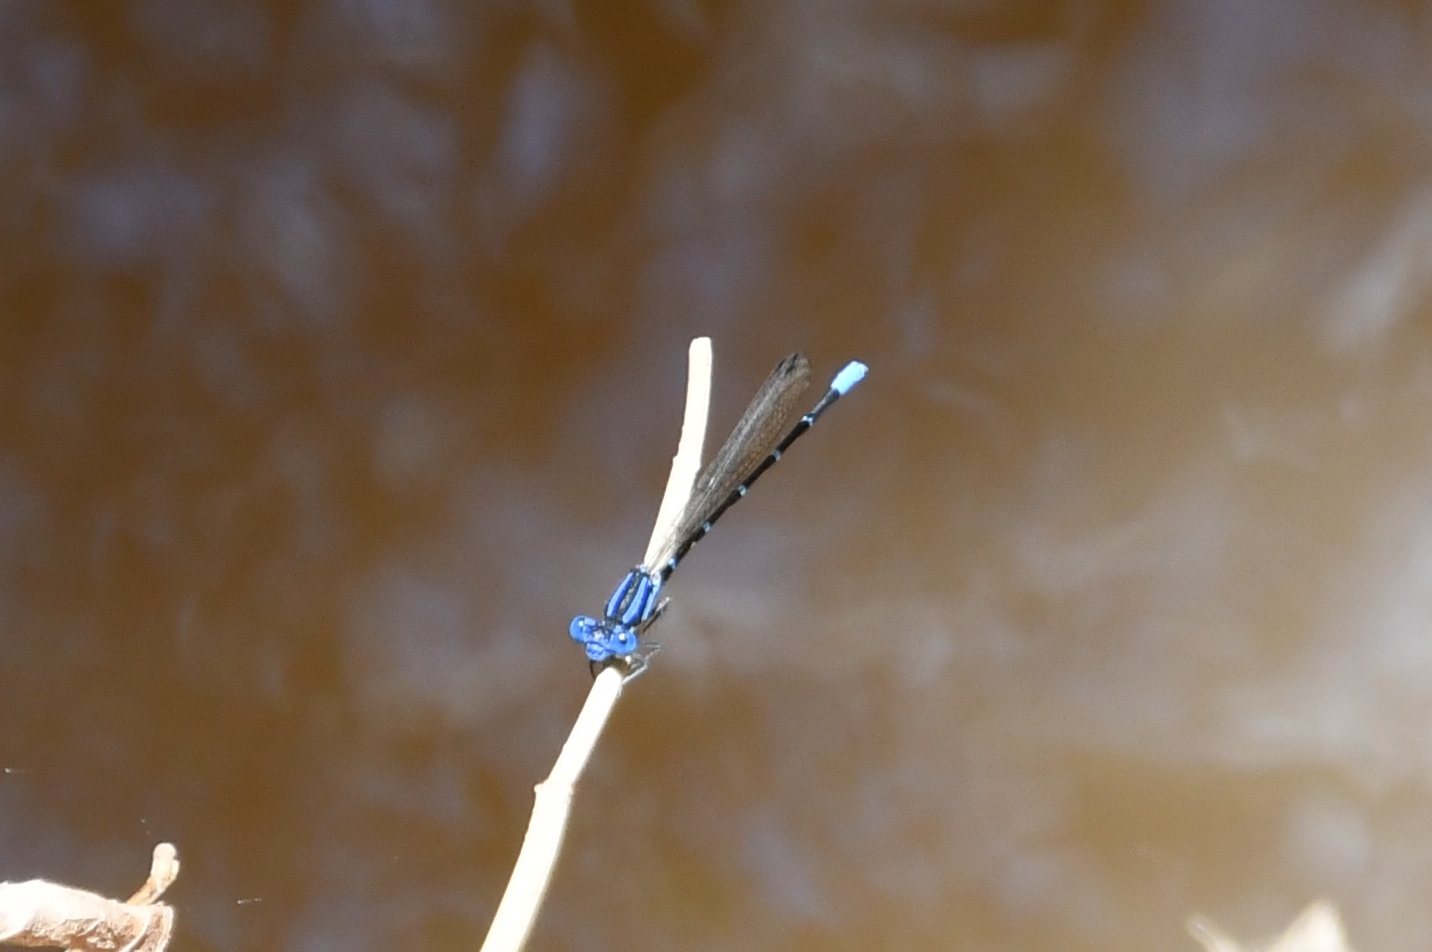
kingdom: Animalia
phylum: Arthropoda
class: Insecta
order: Odonata
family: Coenagrionidae
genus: Argia
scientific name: Argia sedula
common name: Blue-ringed dancer
